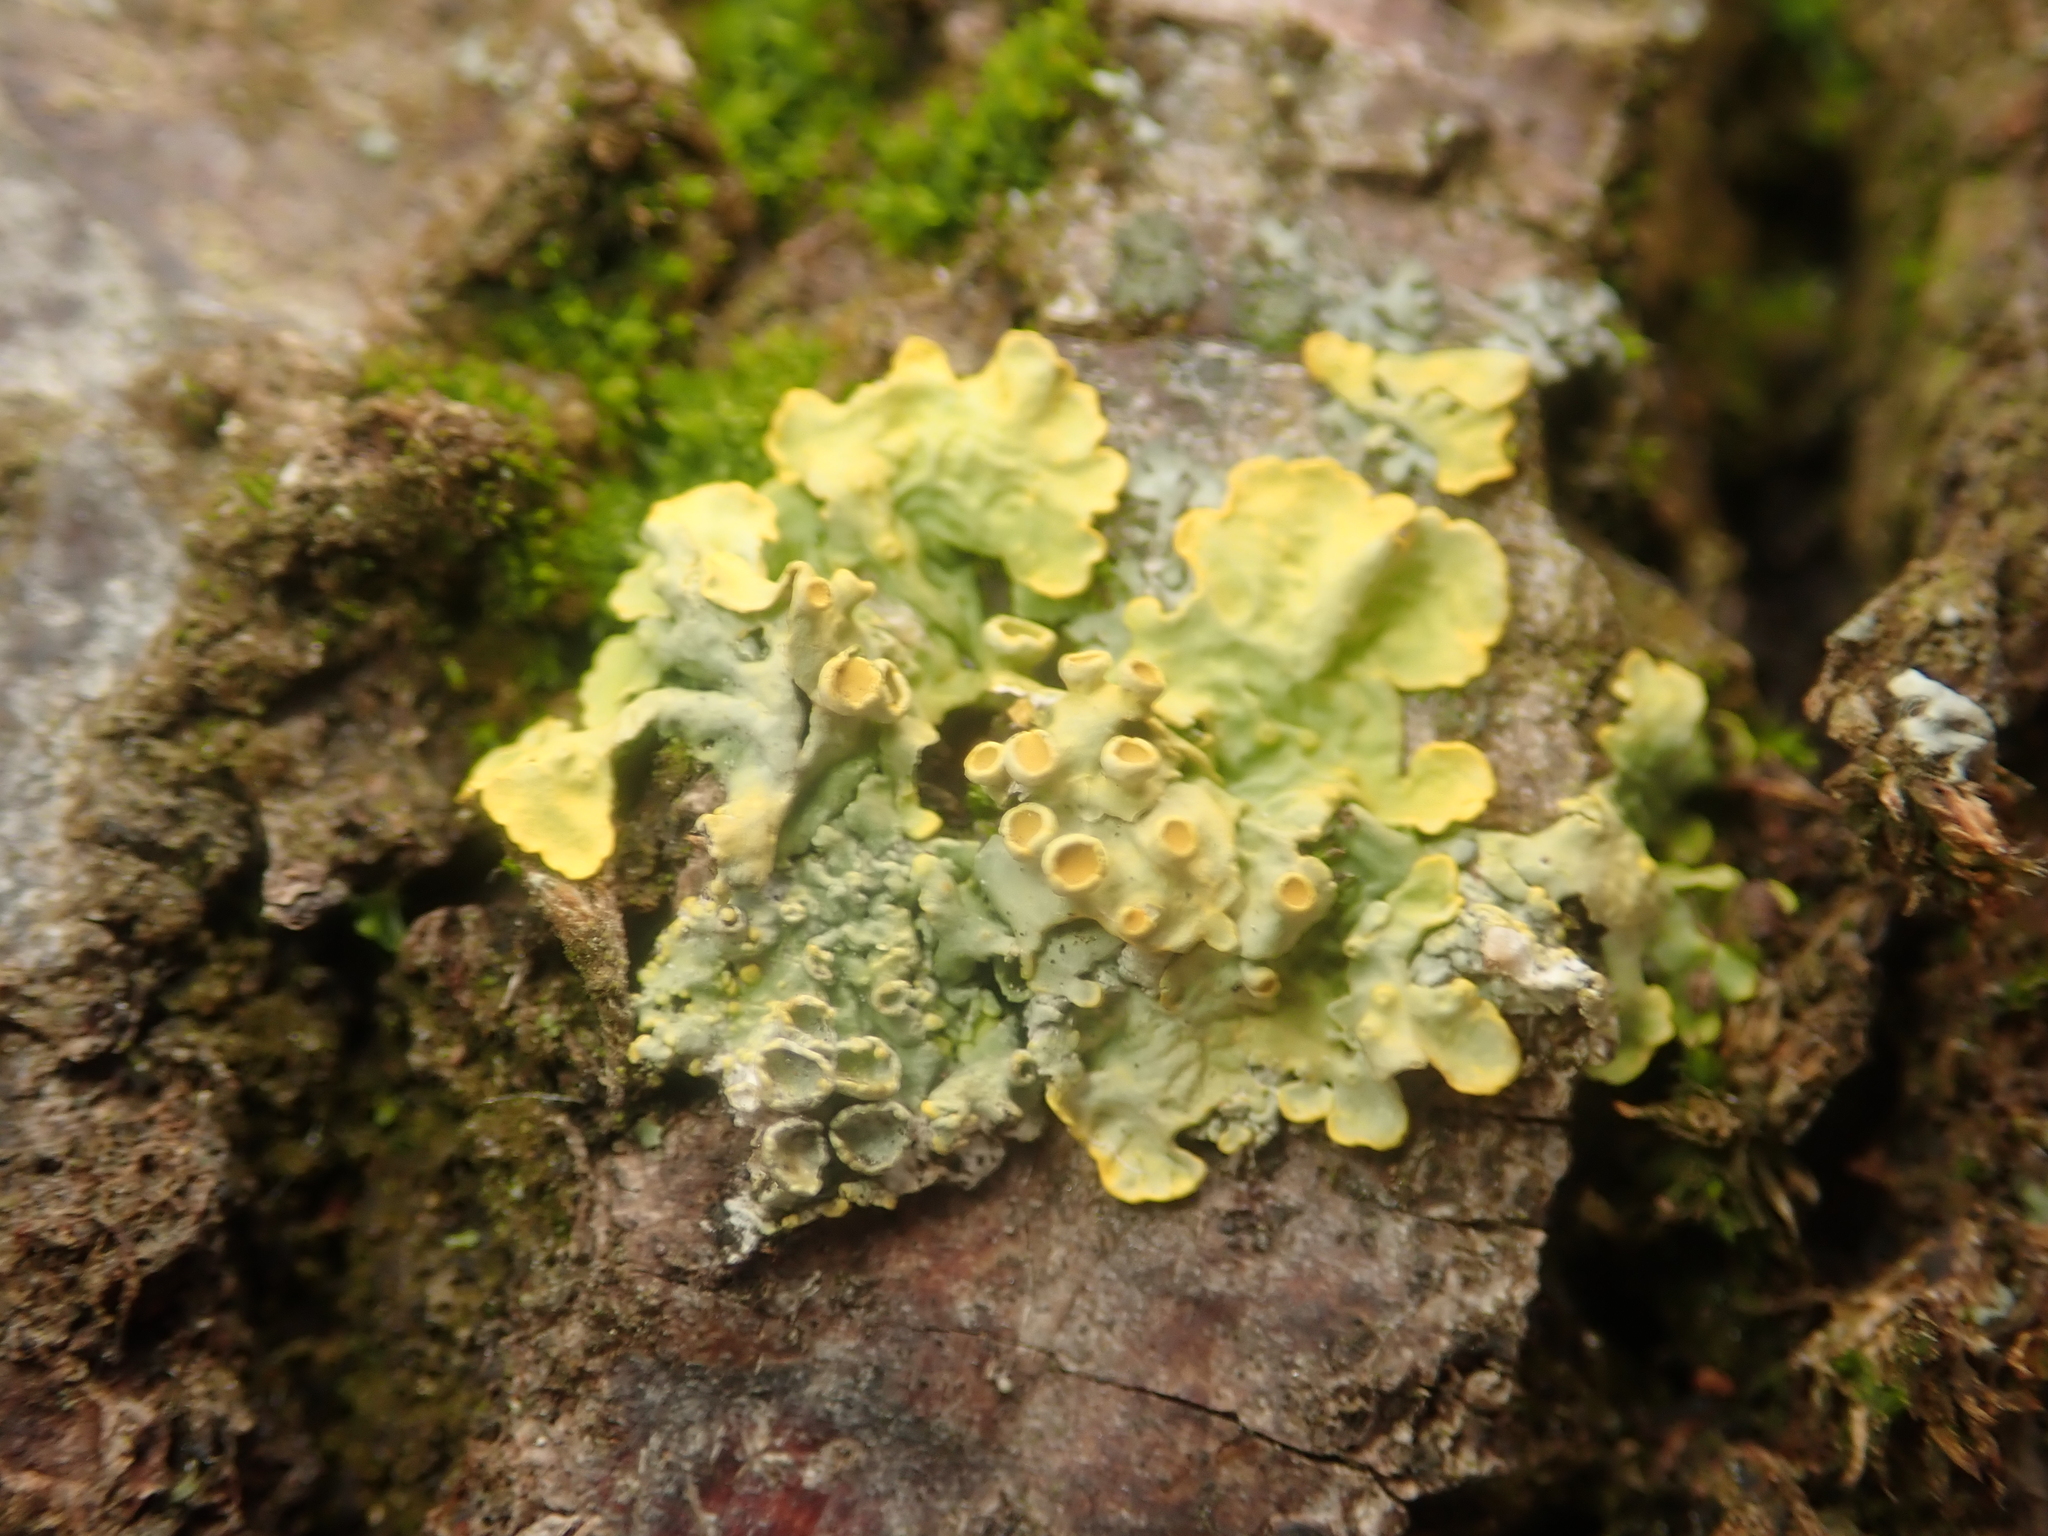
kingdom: Fungi
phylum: Ascomycota
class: Lecanoromycetes
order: Teloschistales
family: Teloschistaceae
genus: Xanthoria
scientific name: Xanthoria parietina
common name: Common orange lichen
